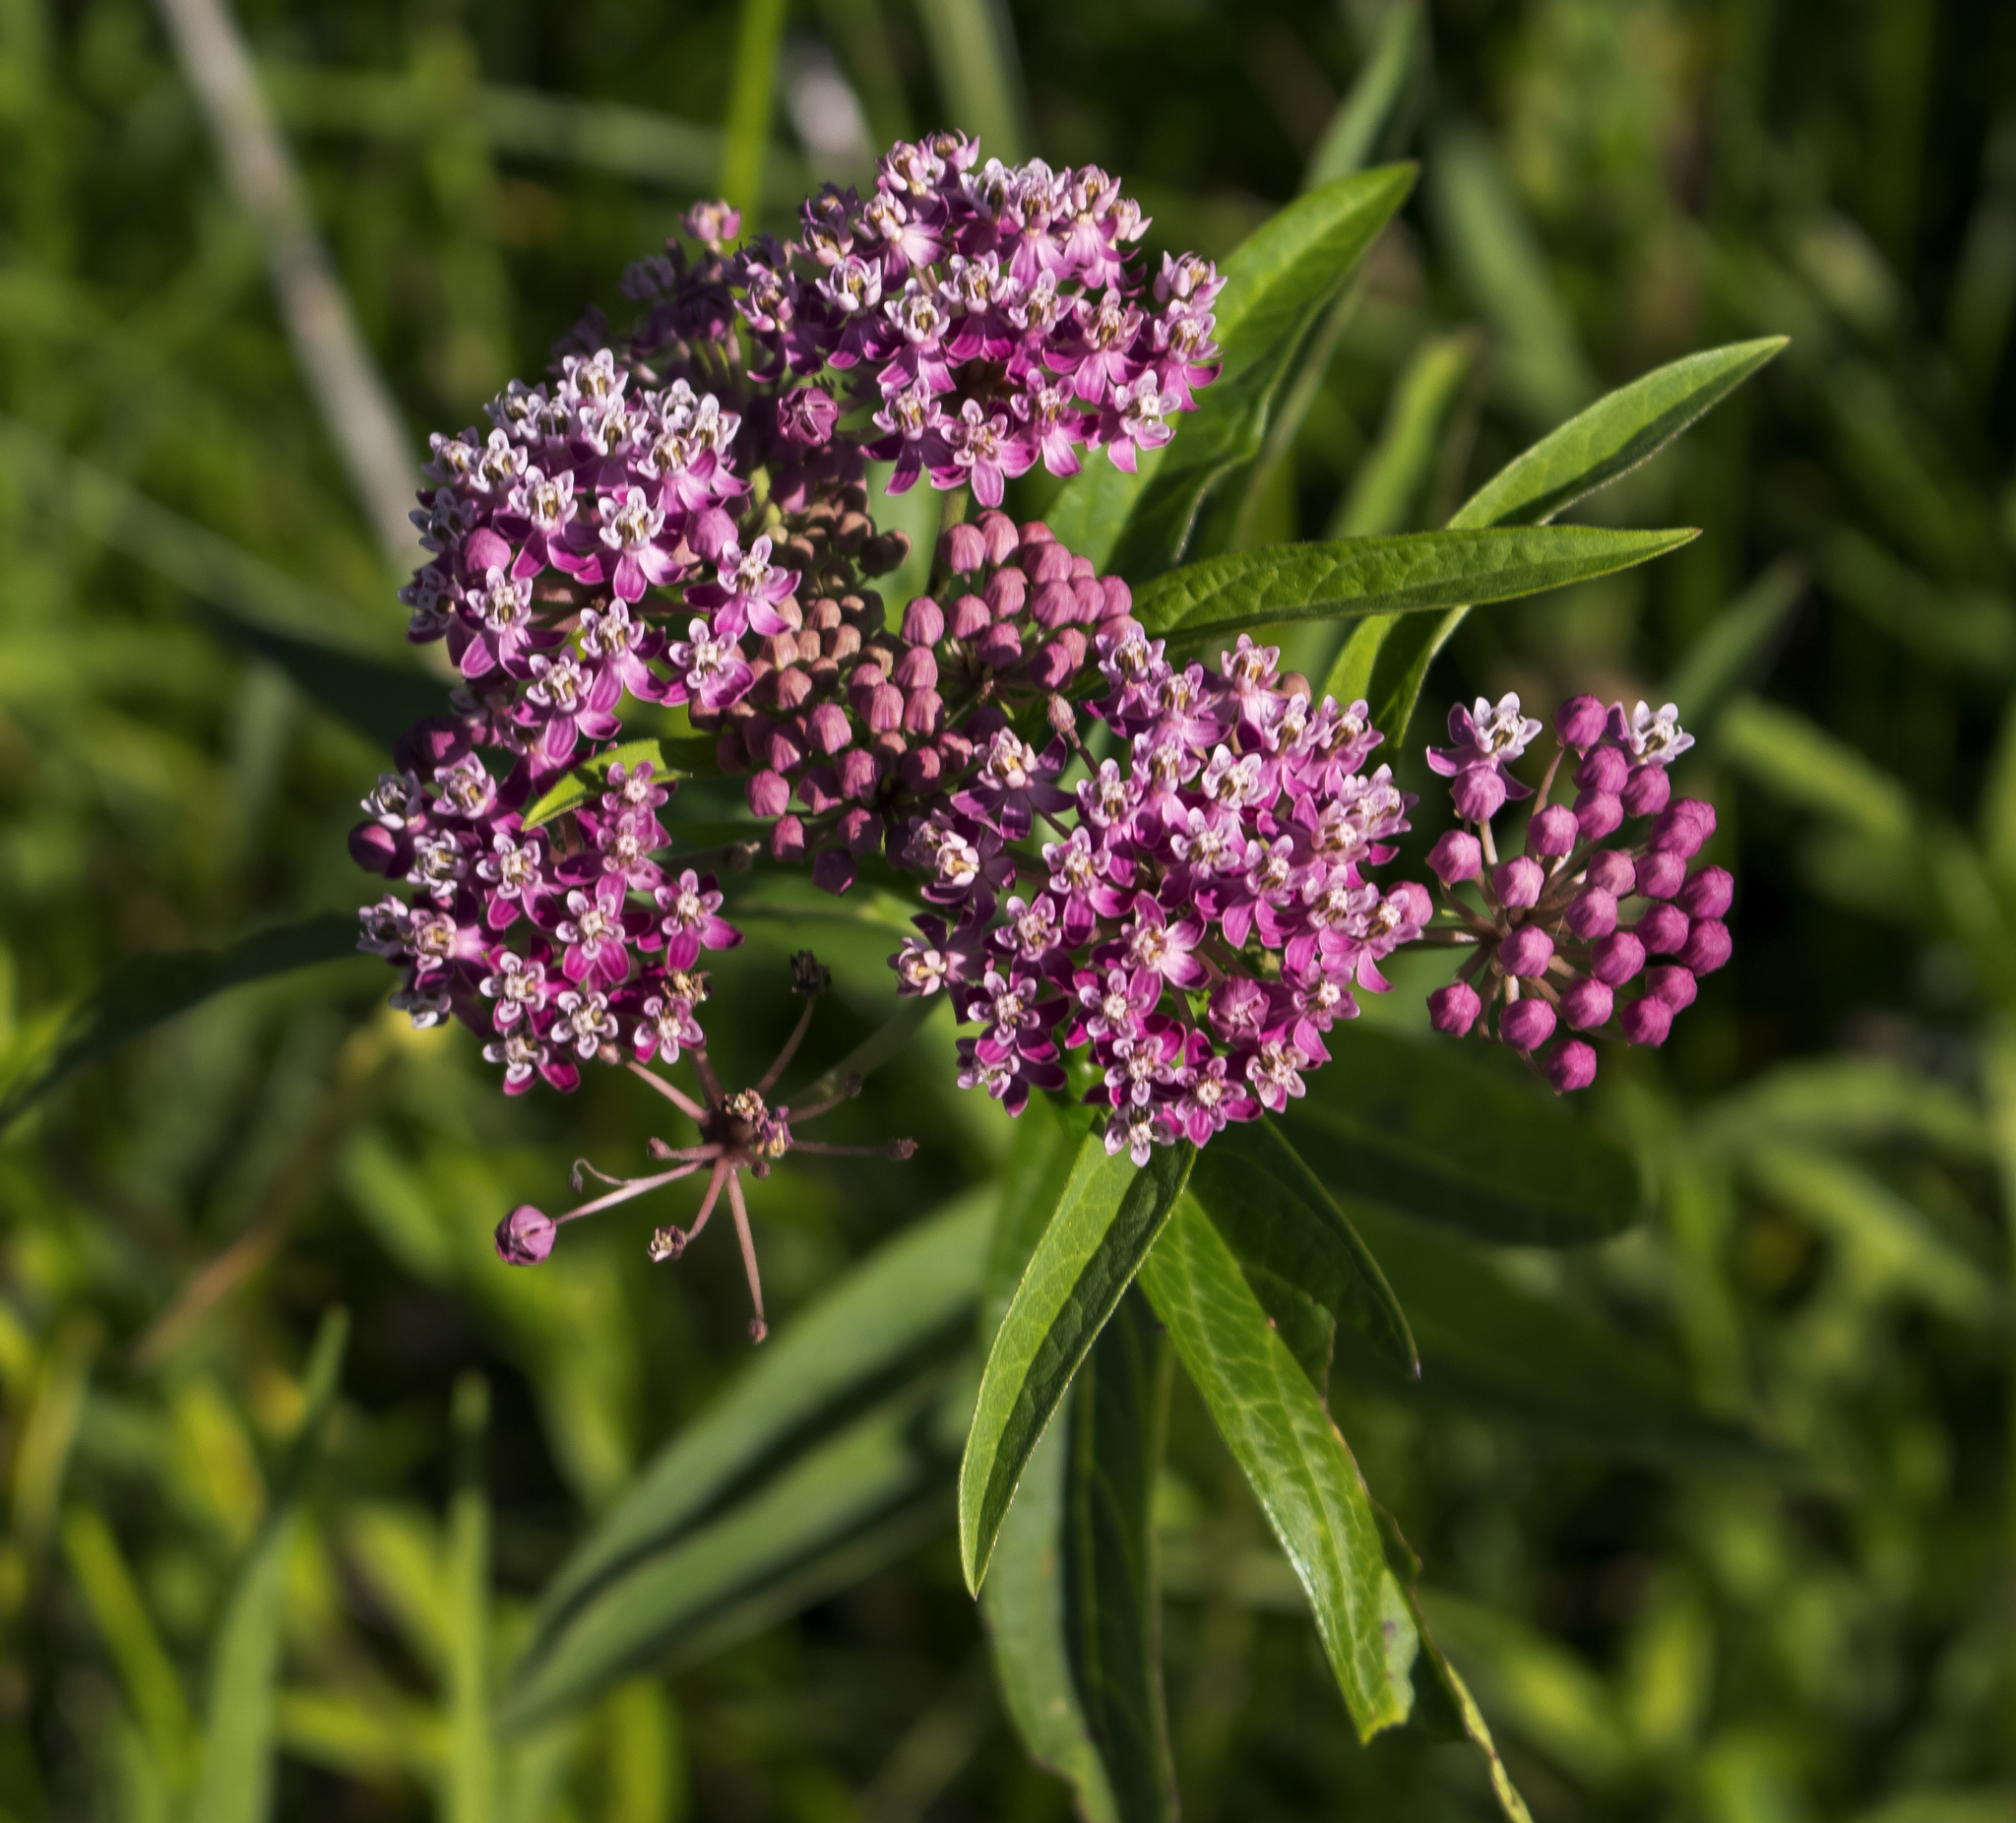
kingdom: Plantae
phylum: Tracheophyta
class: Magnoliopsida
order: Gentianales
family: Apocynaceae
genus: Asclepias
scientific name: Asclepias incarnata
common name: Swamp milkweed
